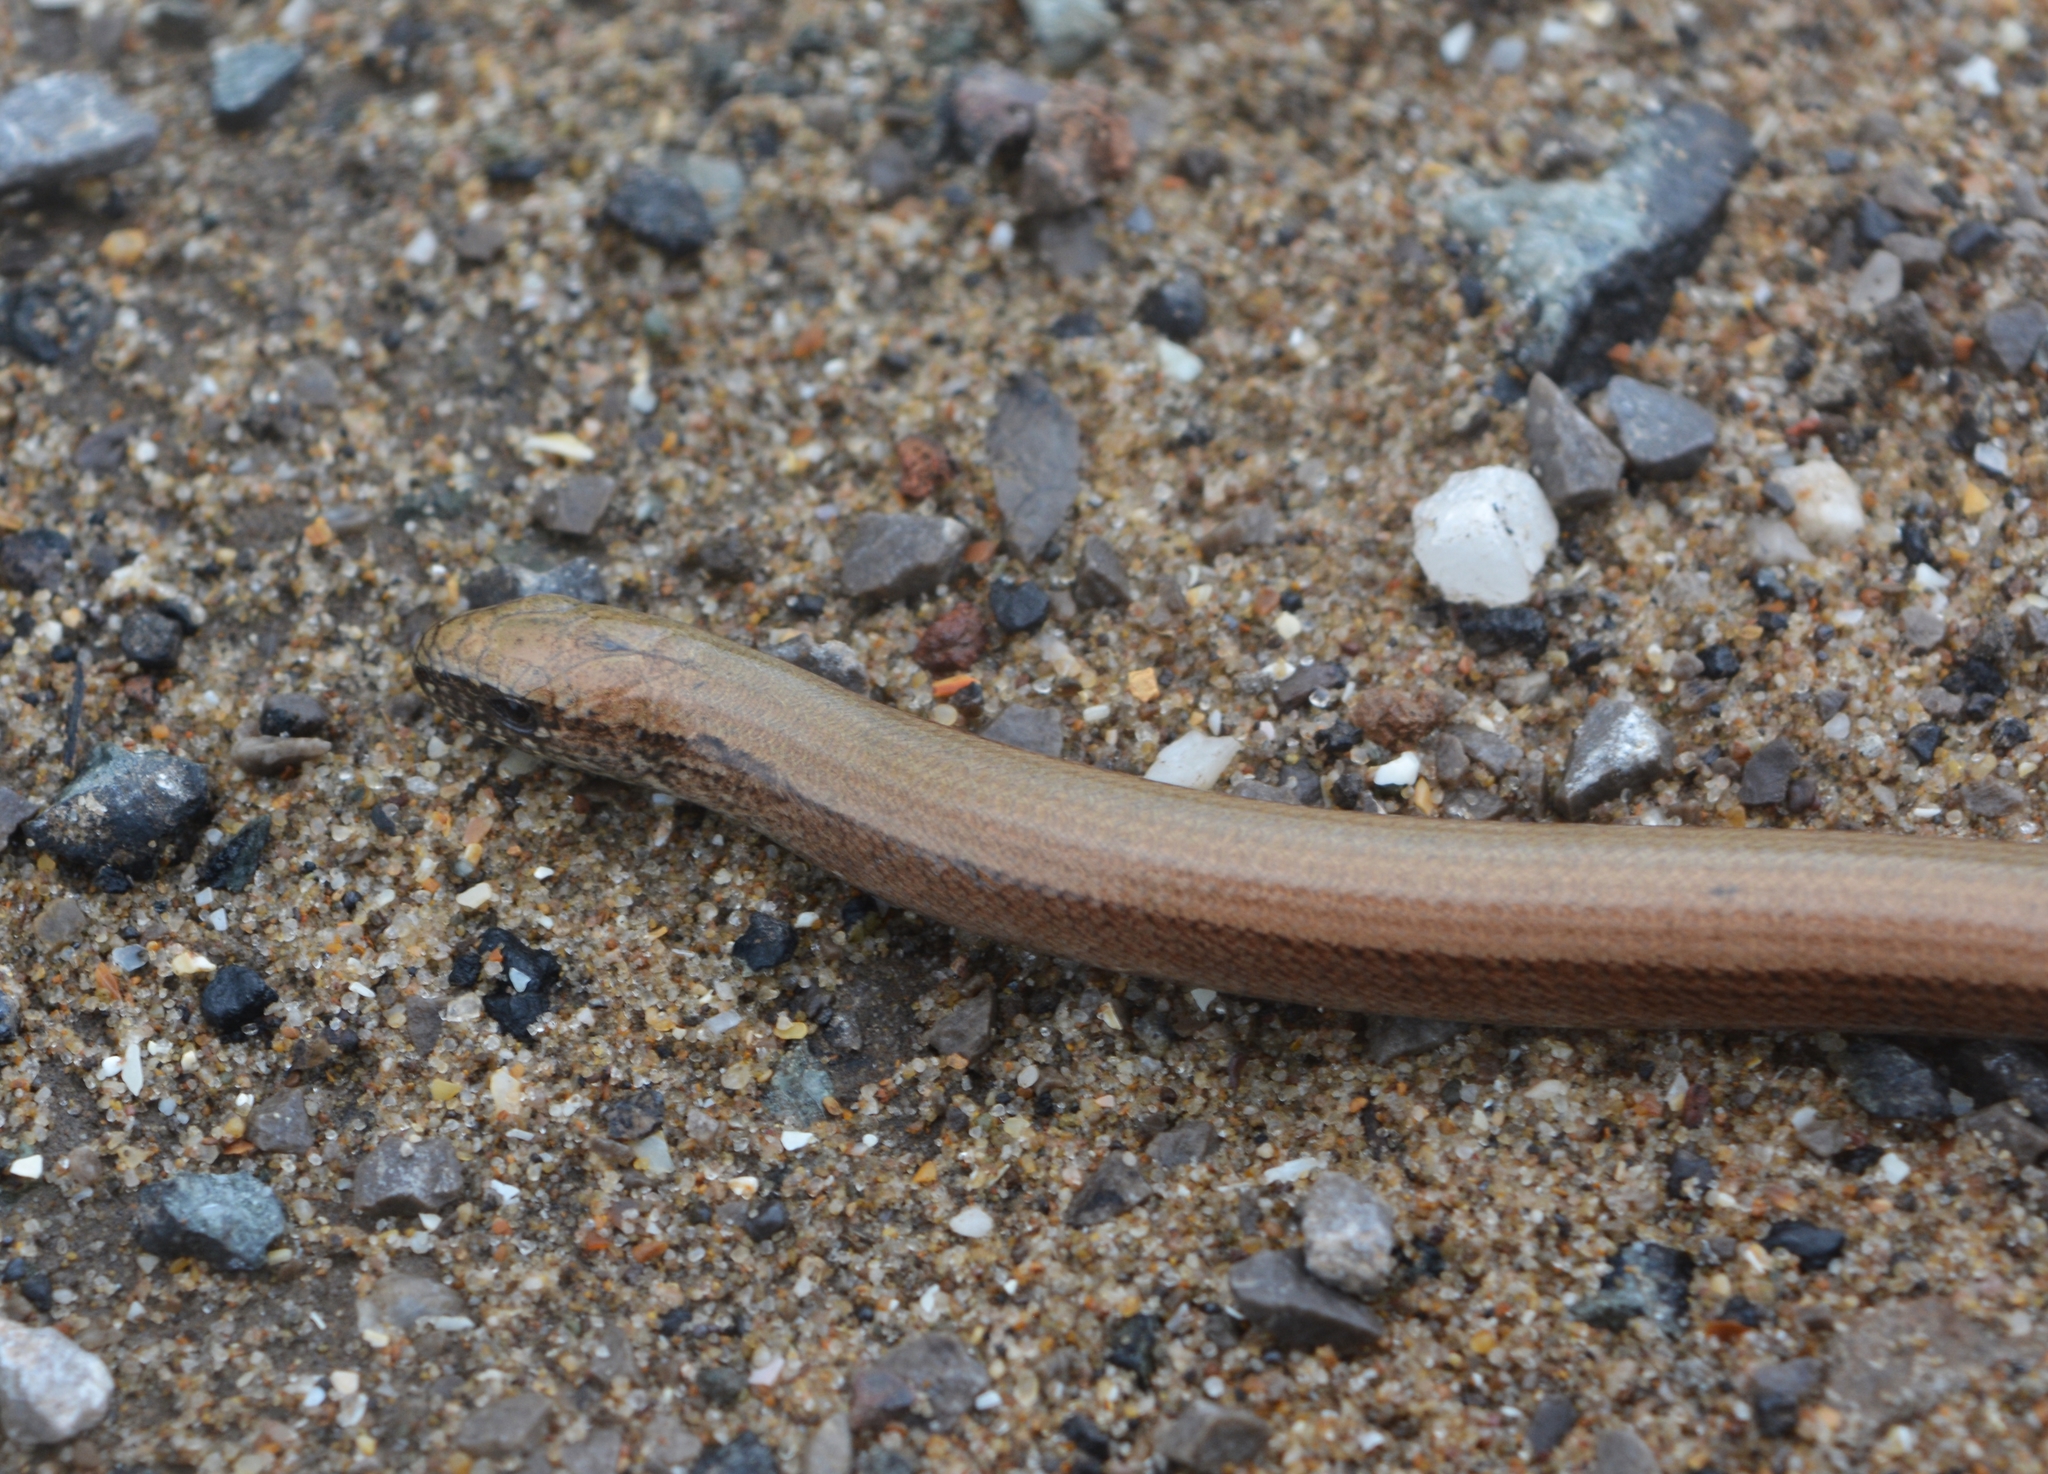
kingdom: Animalia
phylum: Chordata
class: Squamata
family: Anguidae
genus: Anguis
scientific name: Anguis fragilis
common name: Slow worm
